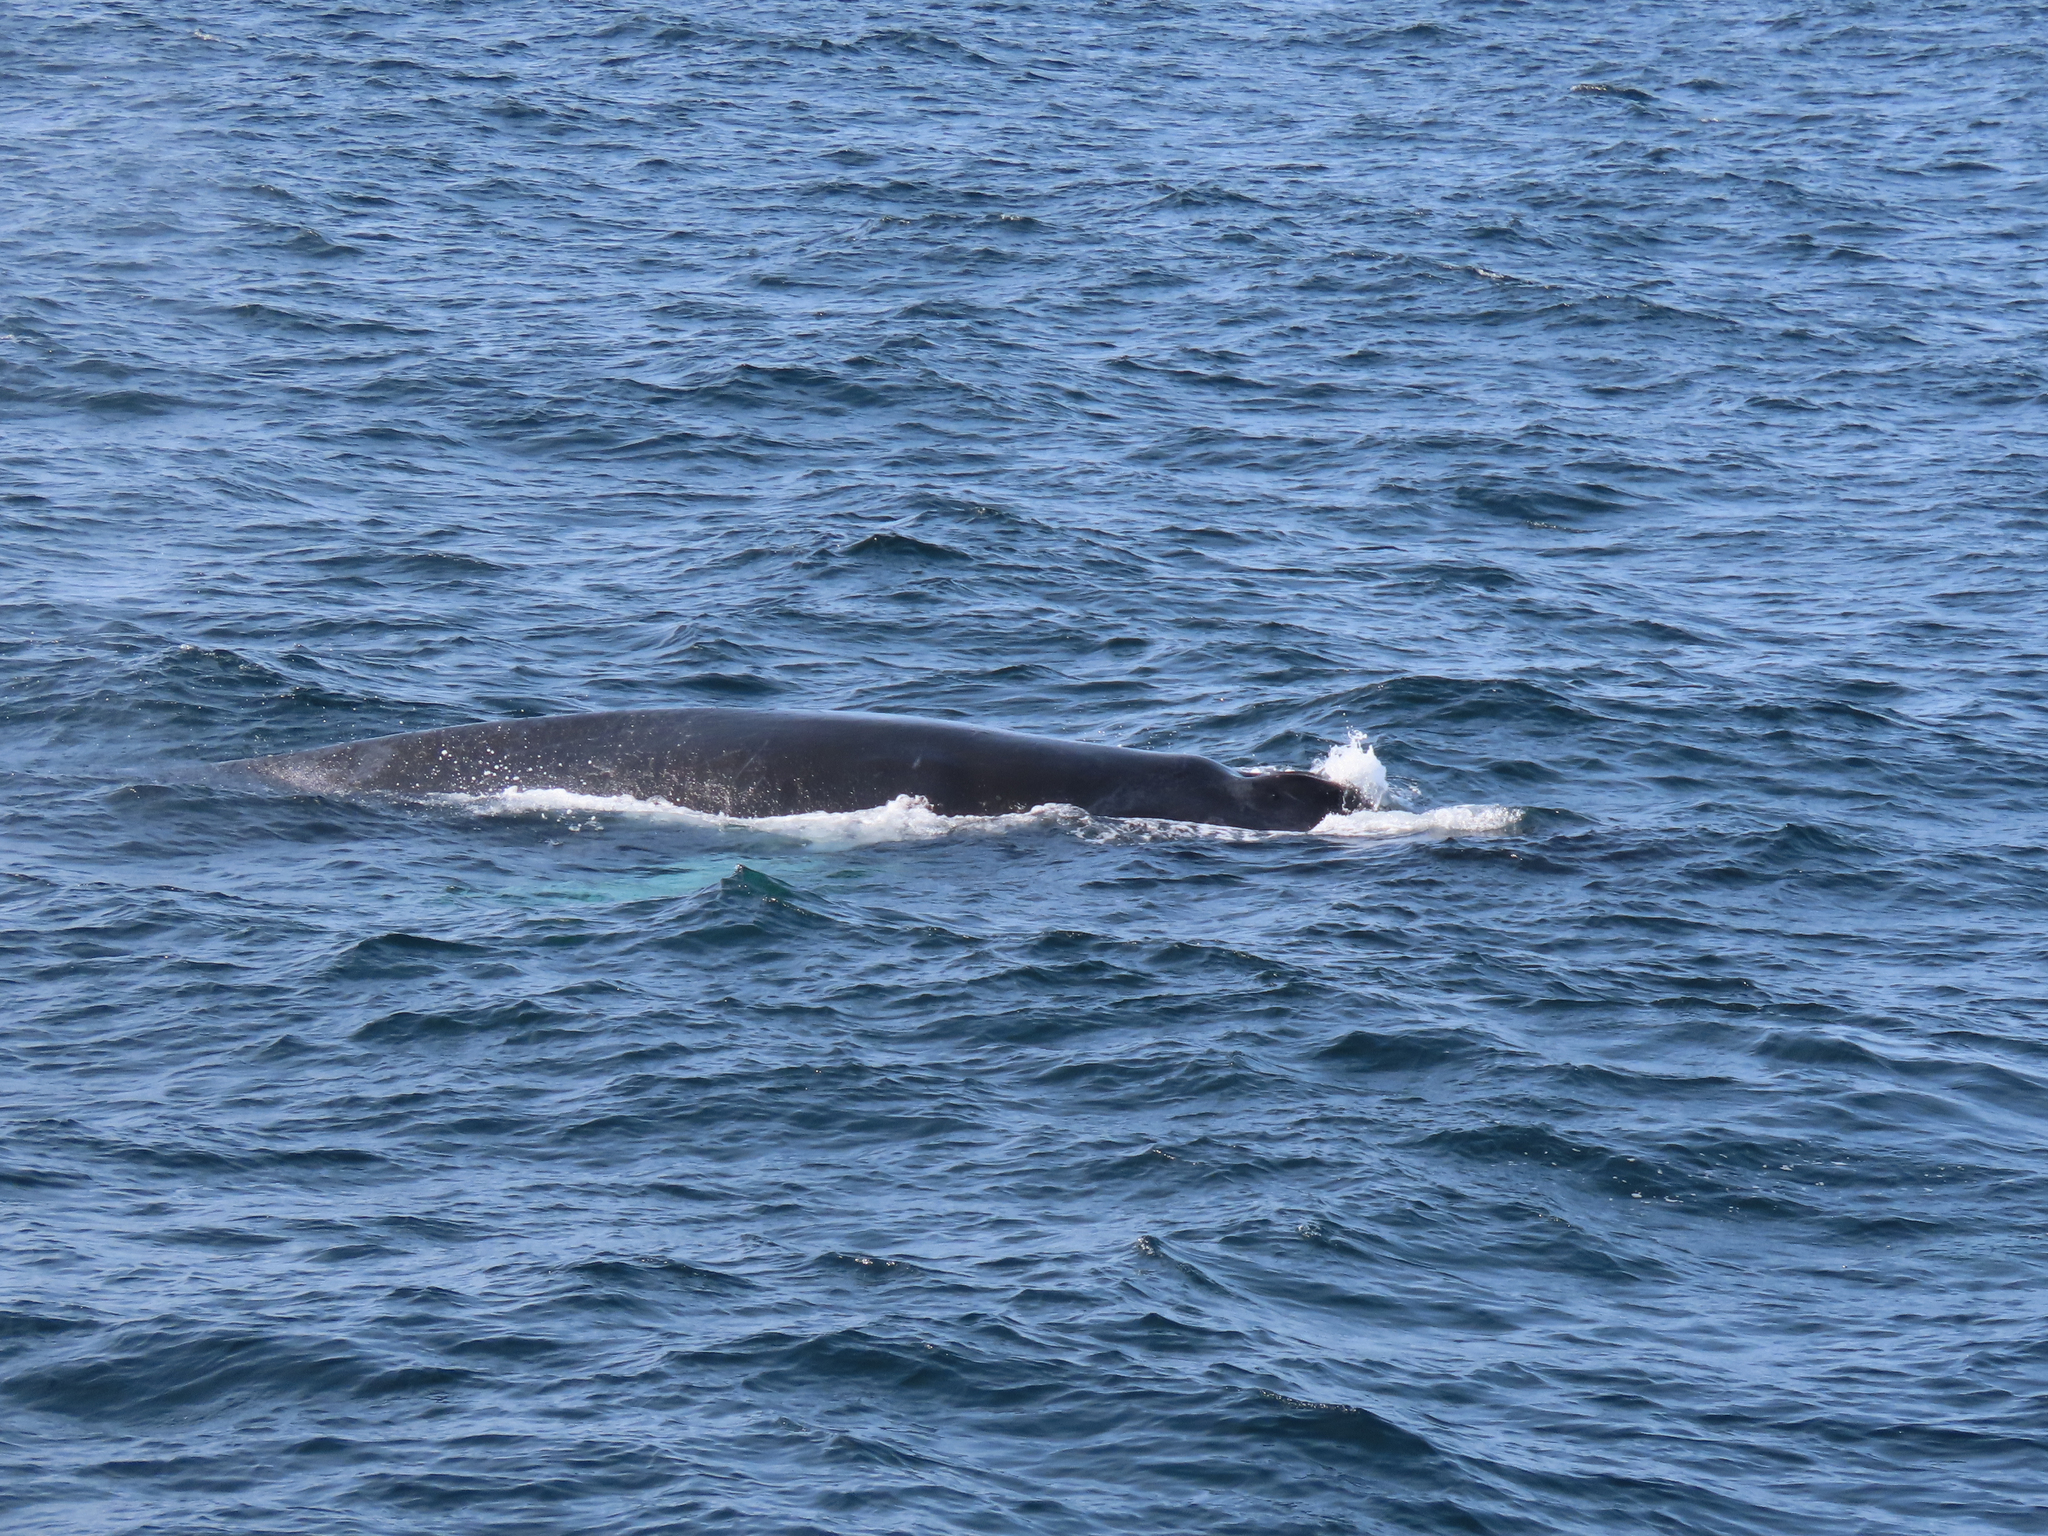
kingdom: Animalia
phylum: Chordata
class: Mammalia
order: Cetacea
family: Balaenopteridae
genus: Megaptera
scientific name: Megaptera novaeangliae
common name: Humpback whale
